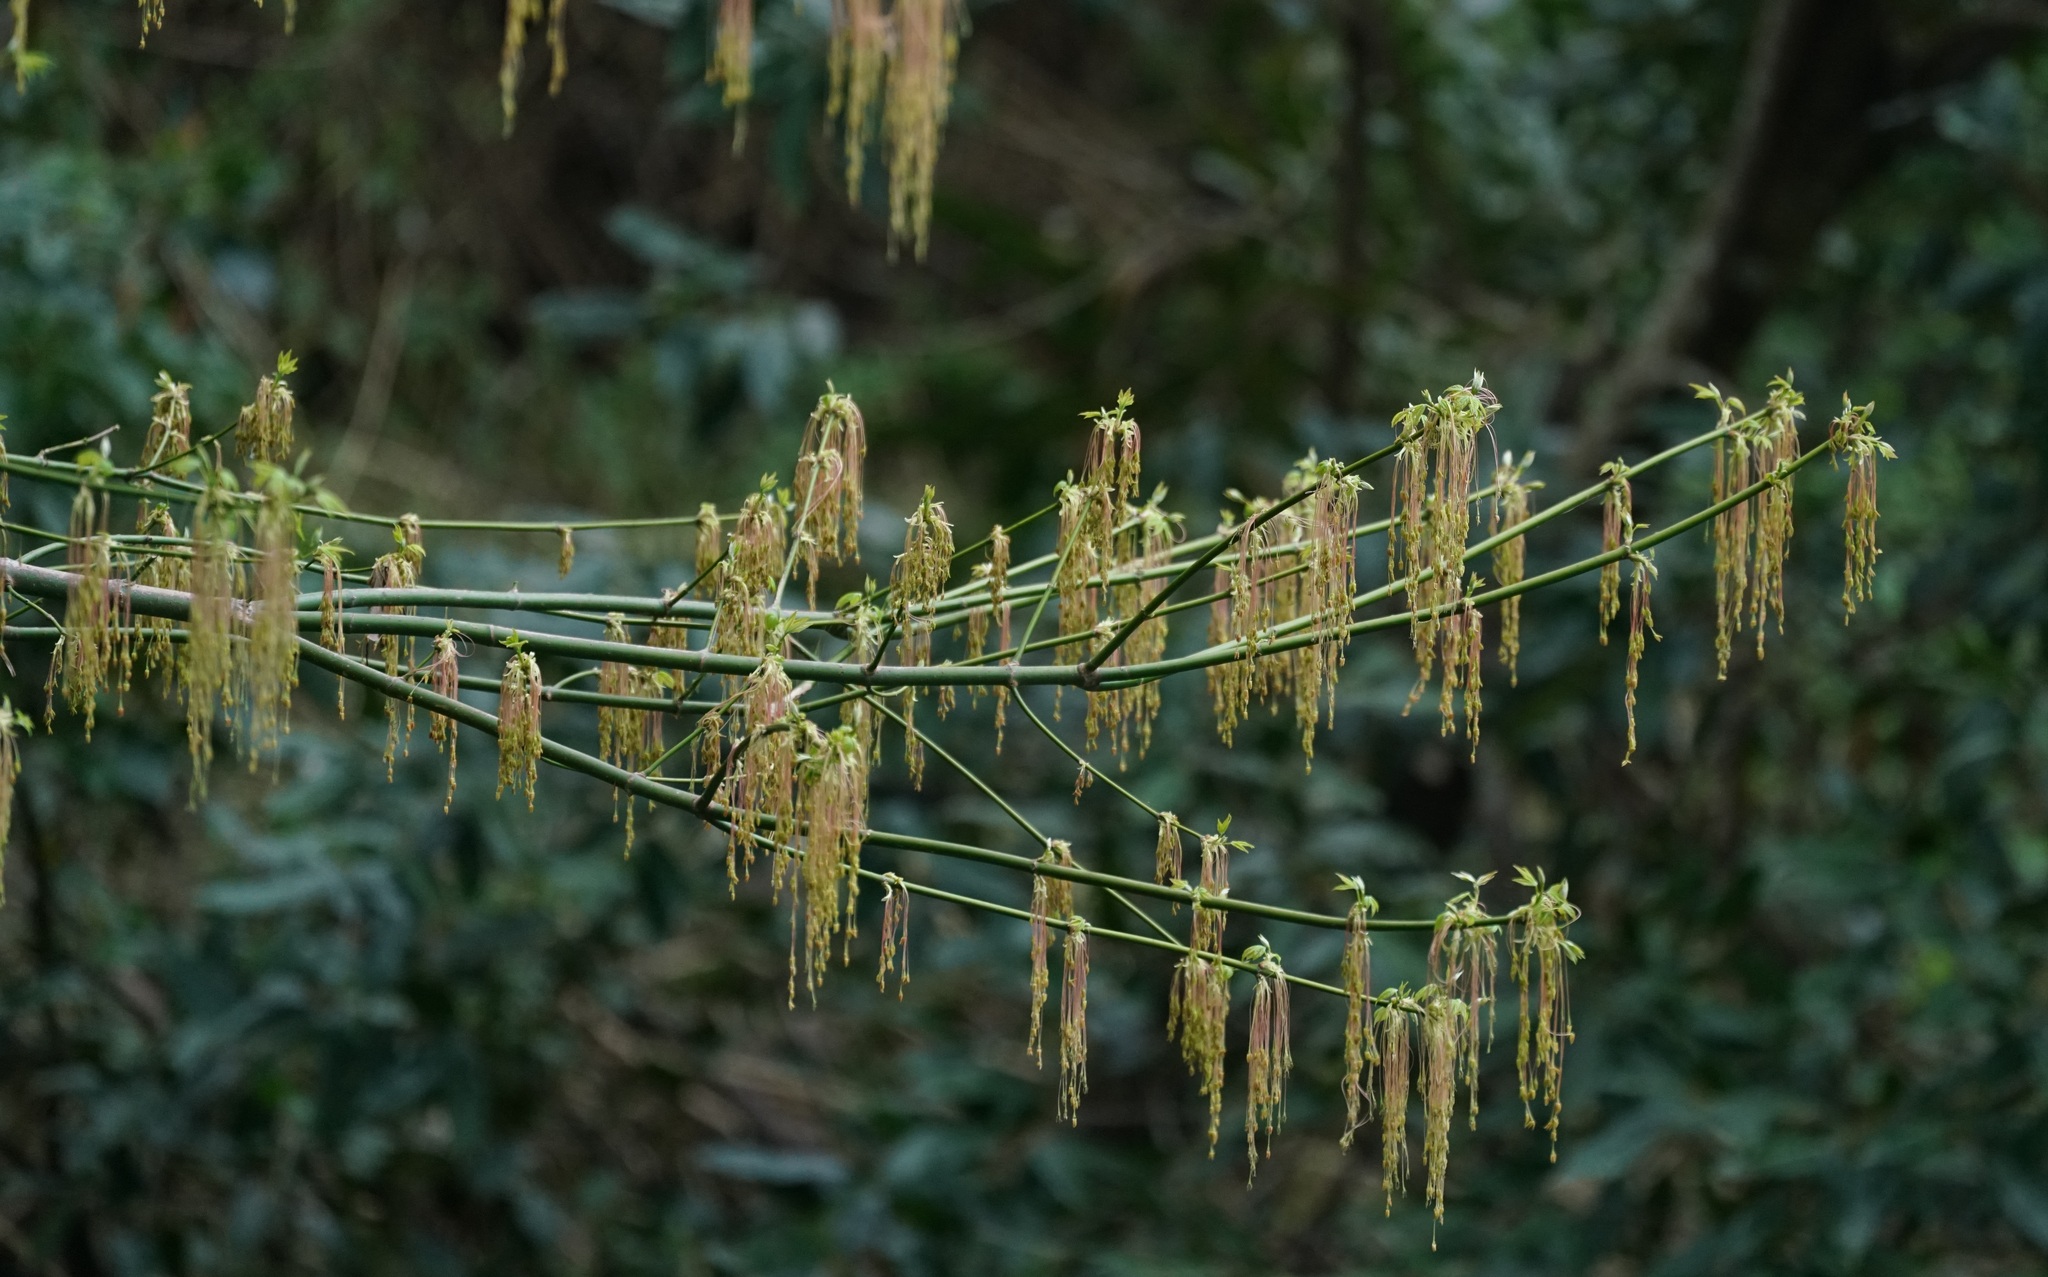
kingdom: Plantae
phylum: Tracheophyta
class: Magnoliopsida
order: Sapindales
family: Sapindaceae
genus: Acer
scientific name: Acer negundo
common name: Ashleaf maple
